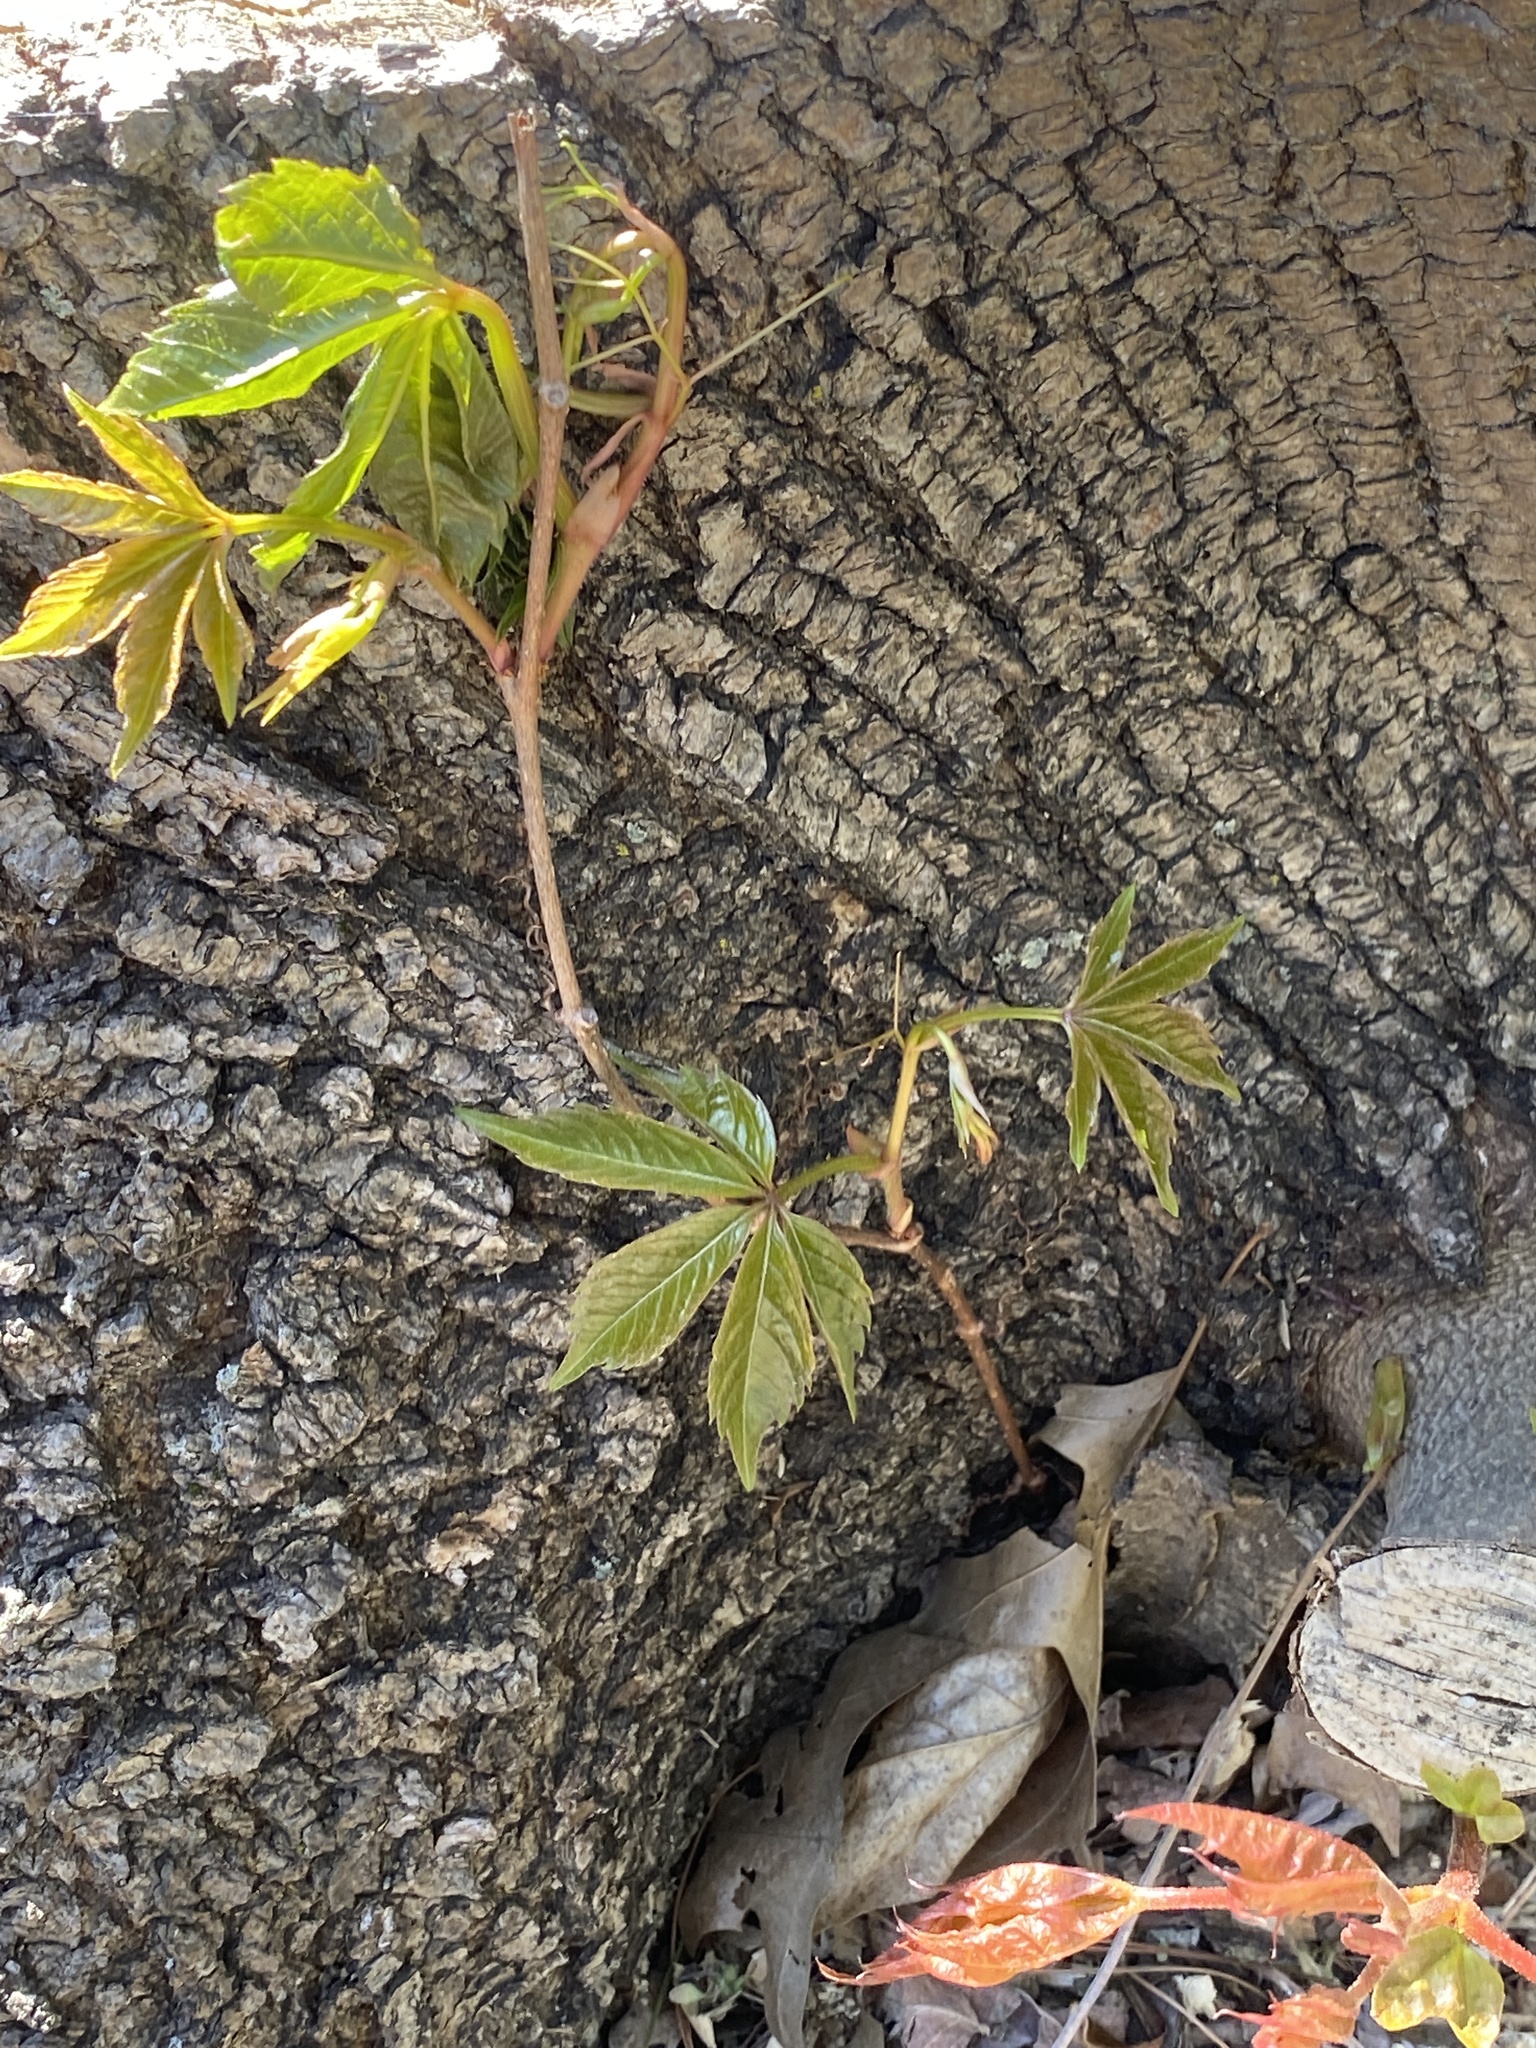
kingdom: Plantae
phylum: Tracheophyta
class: Magnoliopsida
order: Vitales
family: Vitaceae
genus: Parthenocissus
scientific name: Parthenocissus quinquefolia
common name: Virginia-creeper
